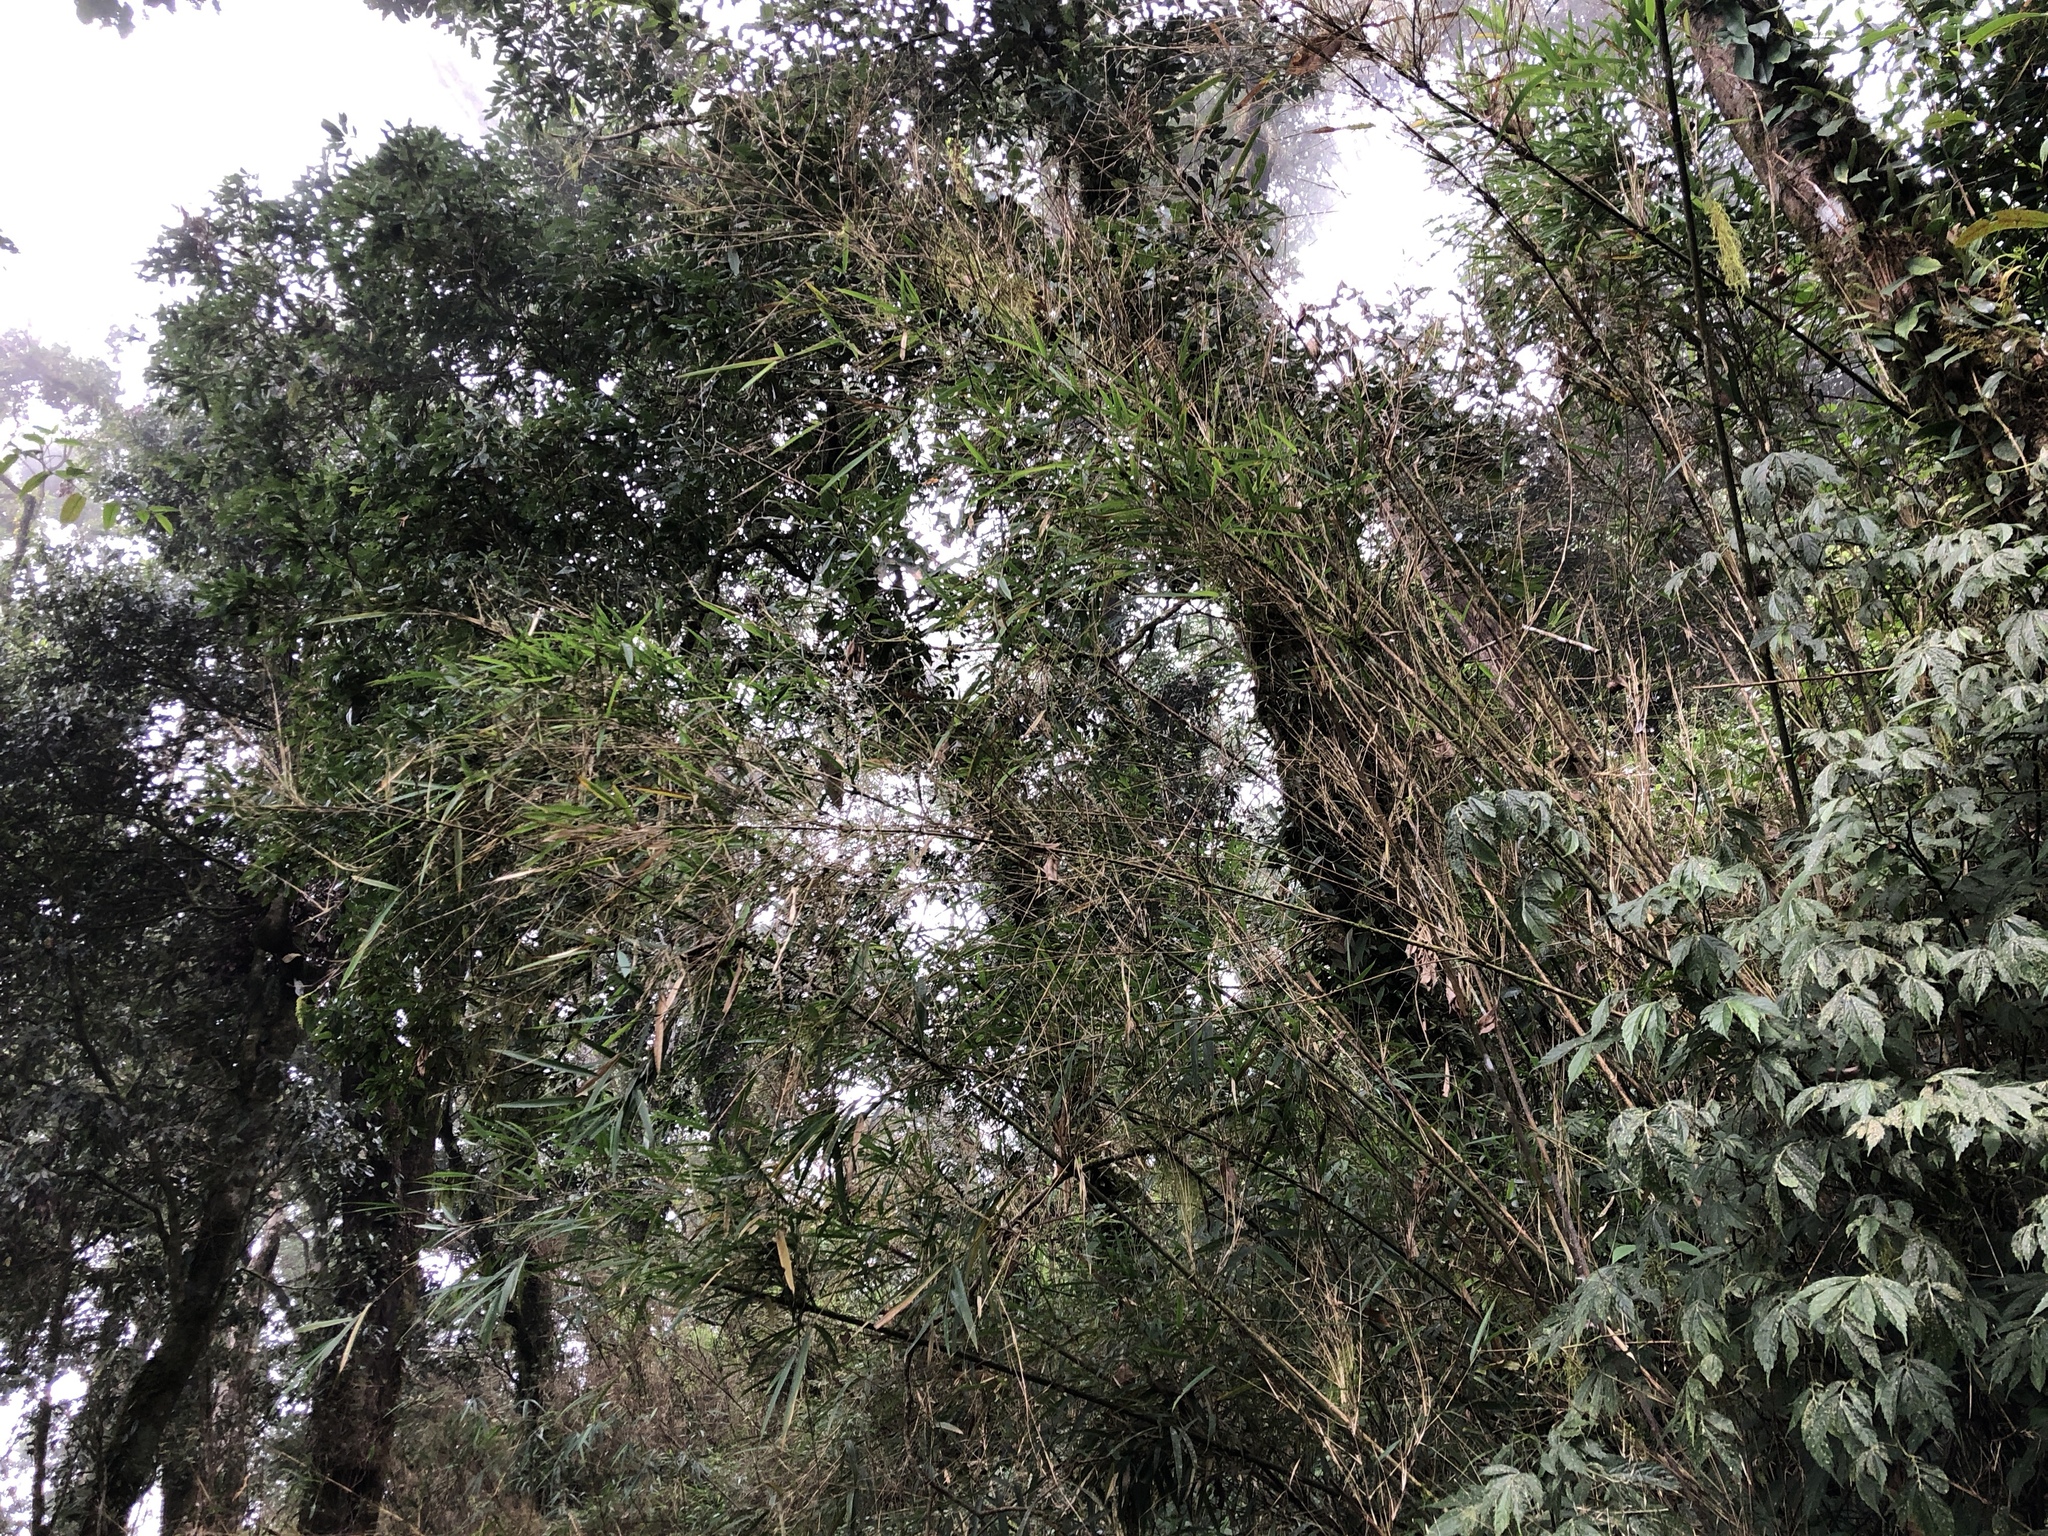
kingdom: Plantae
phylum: Tracheophyta
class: Liliopsida
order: Poales
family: Poaceae
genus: Yushania
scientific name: Yushania niitakayamensis
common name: Yushan cane
